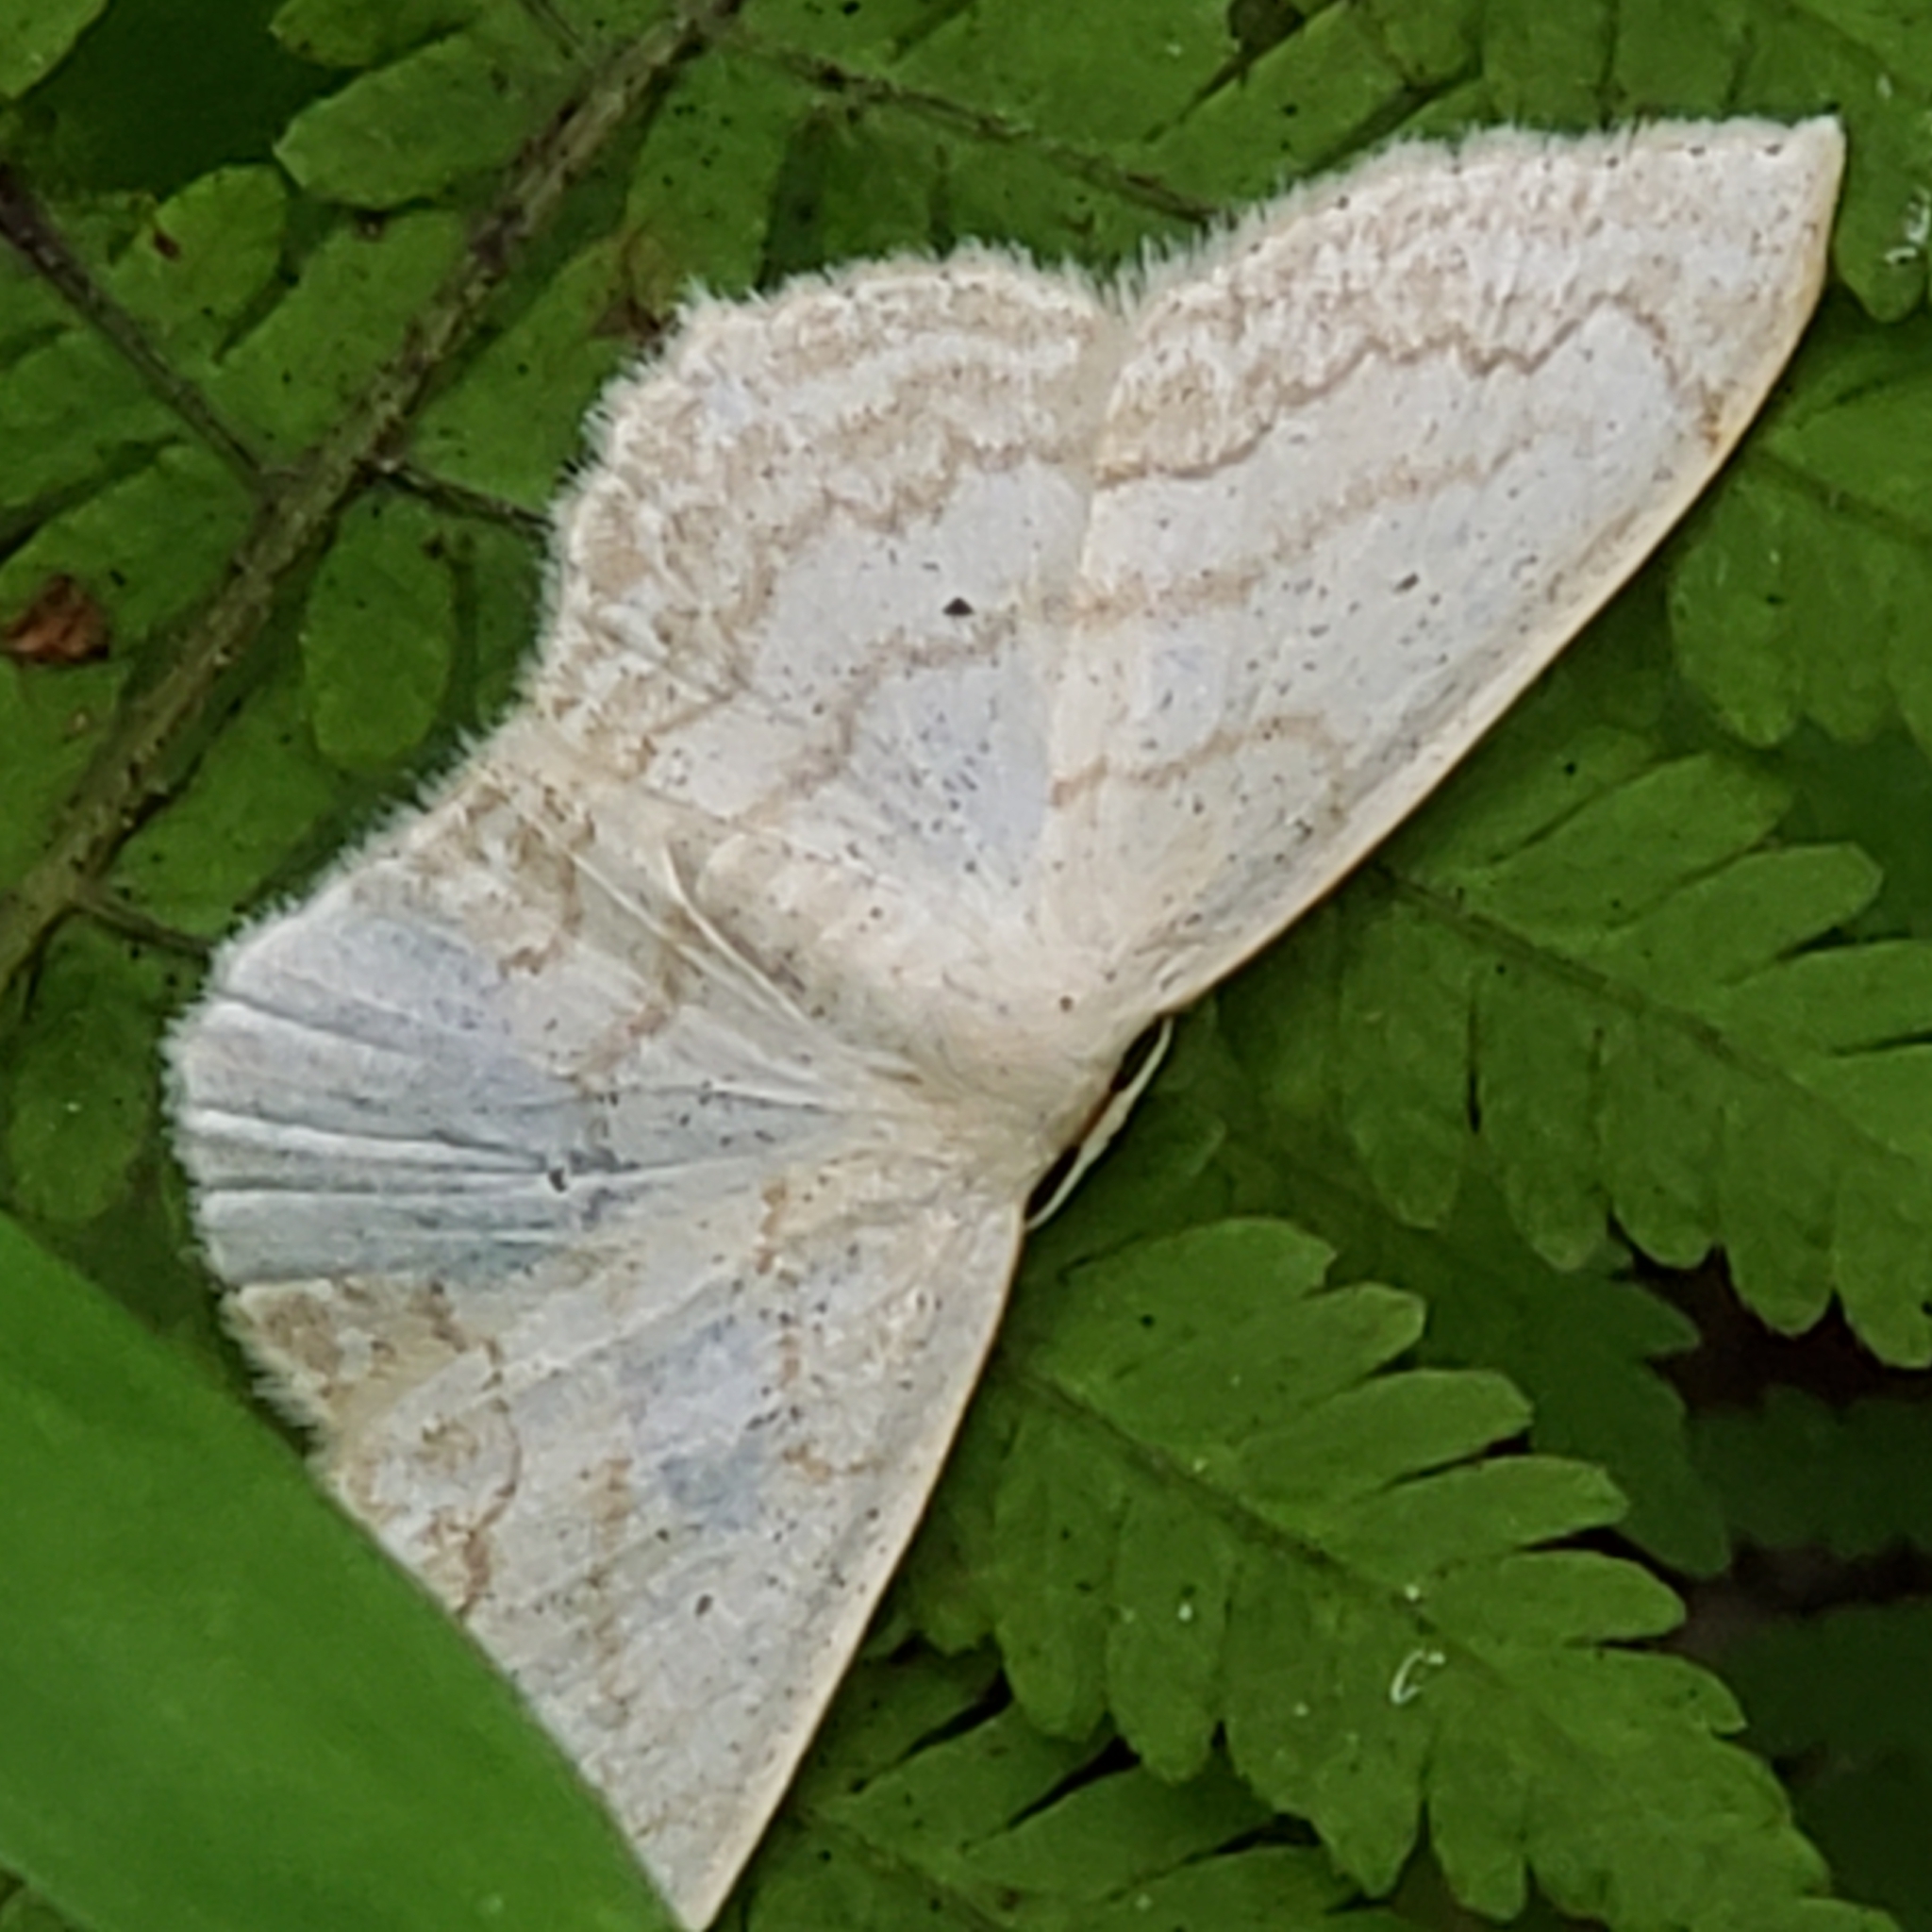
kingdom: Animalia
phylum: Arthropoda
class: Insecta
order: Lepidoptera
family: Geometridae
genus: Scopula
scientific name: Scopula limboundata
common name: Large lace border
